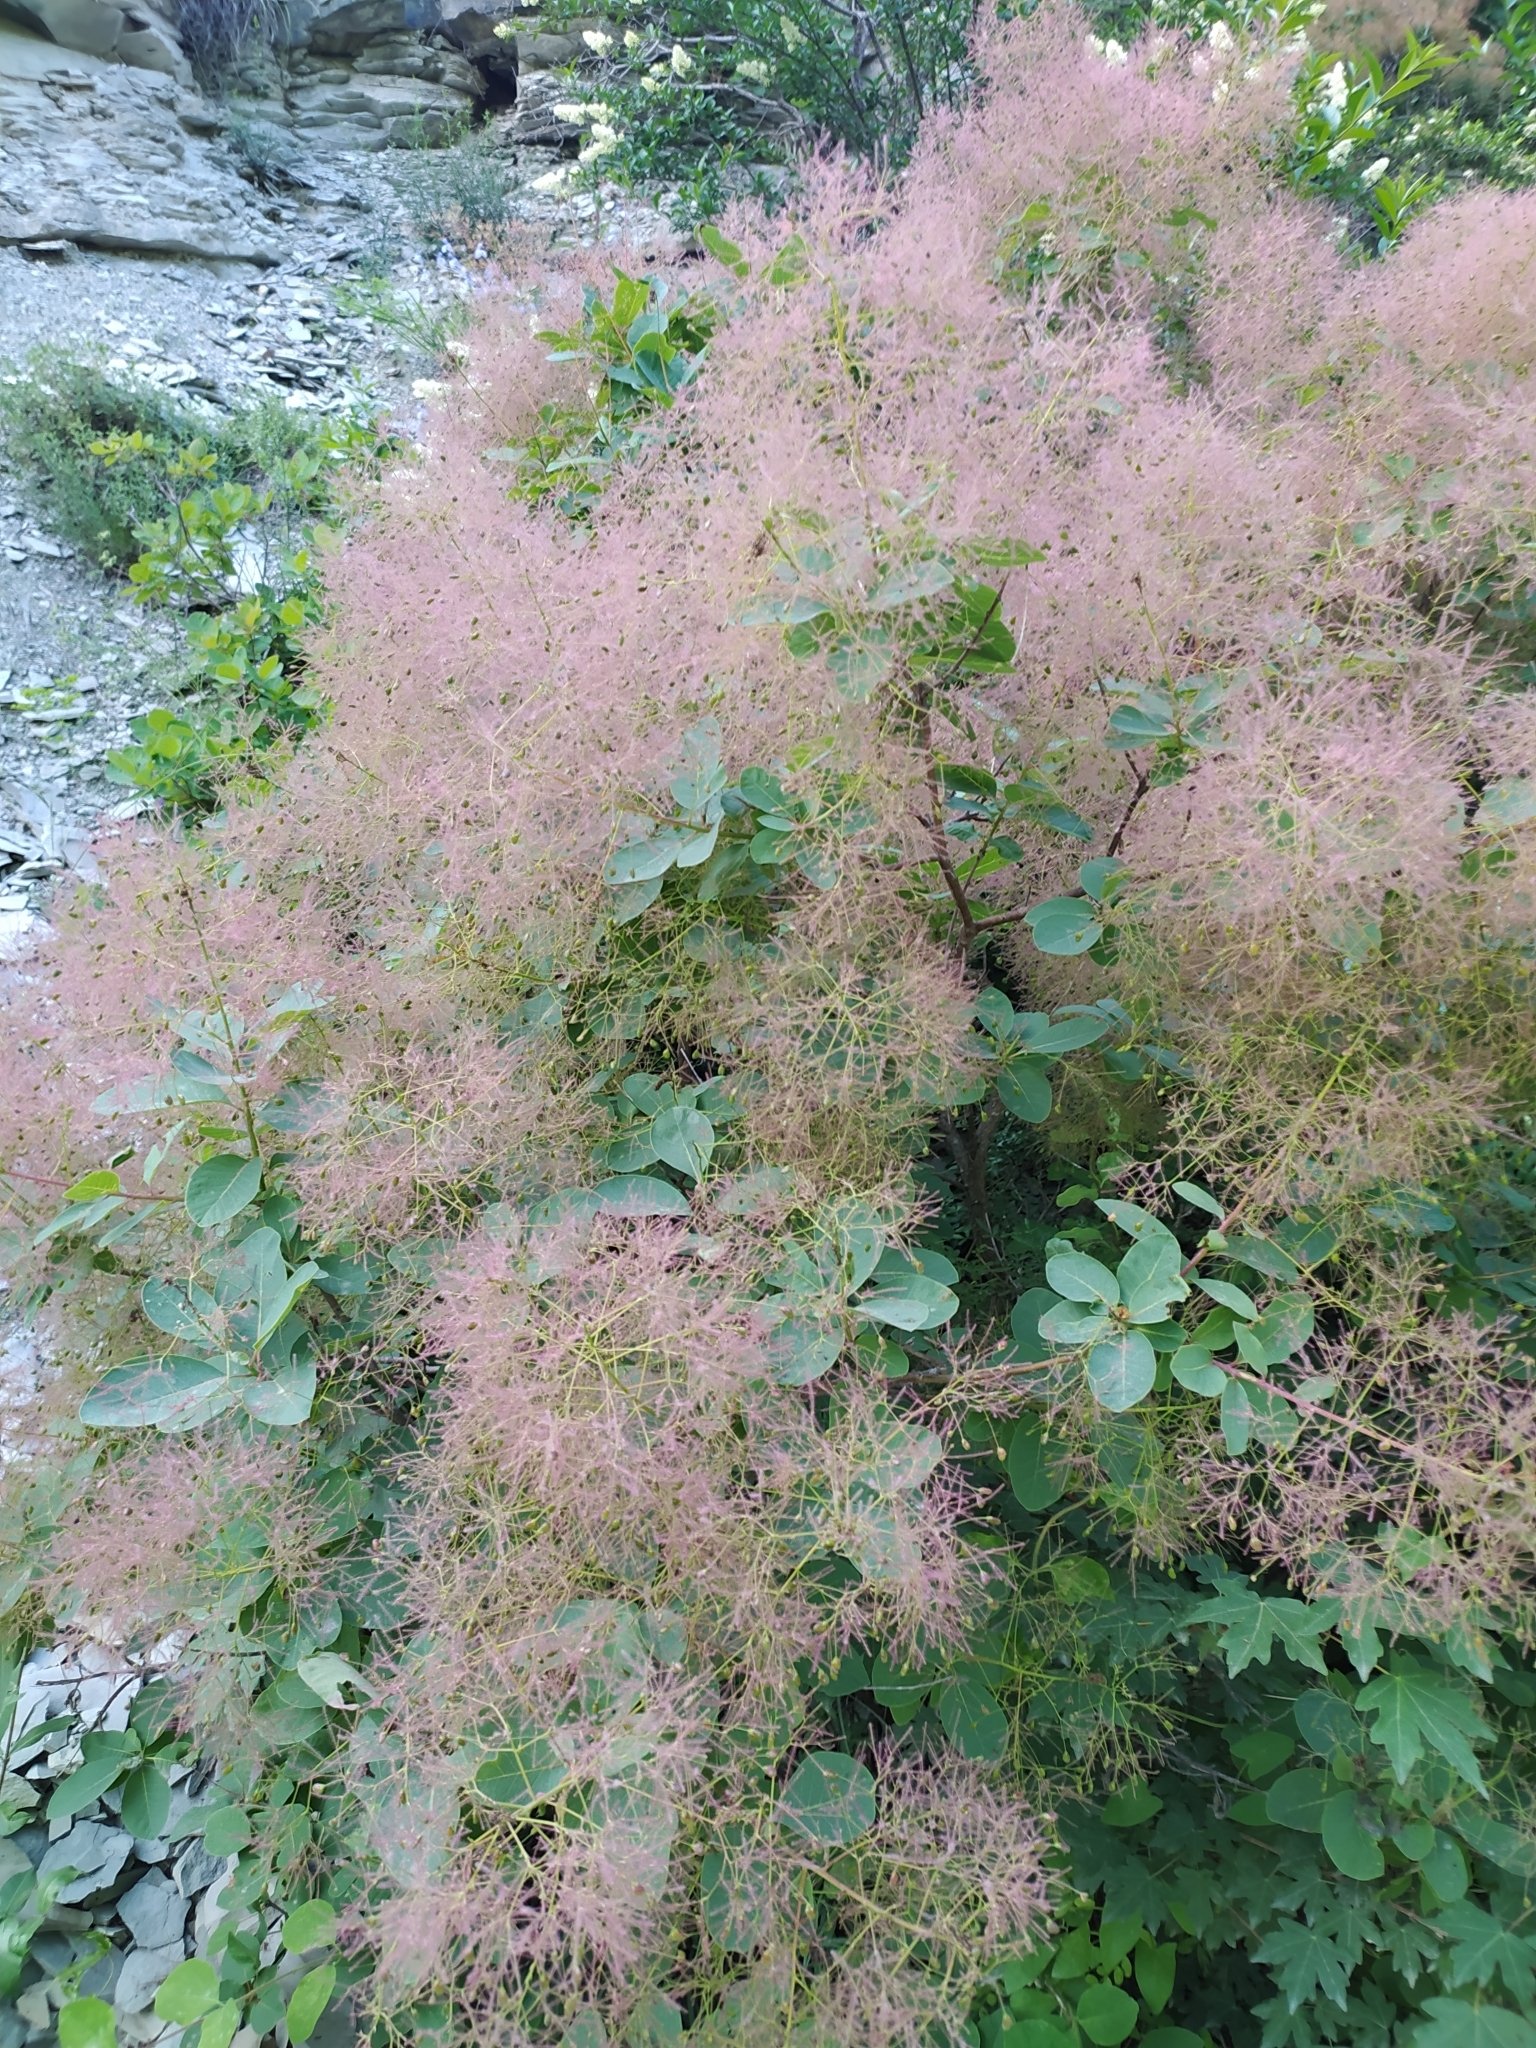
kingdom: Plantae
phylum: Tracheophyta
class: Magnoliopsida
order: Sapindales
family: Anacardiaceae
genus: Cotinus
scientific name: Cotinus coggygria
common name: Smoke-tree
